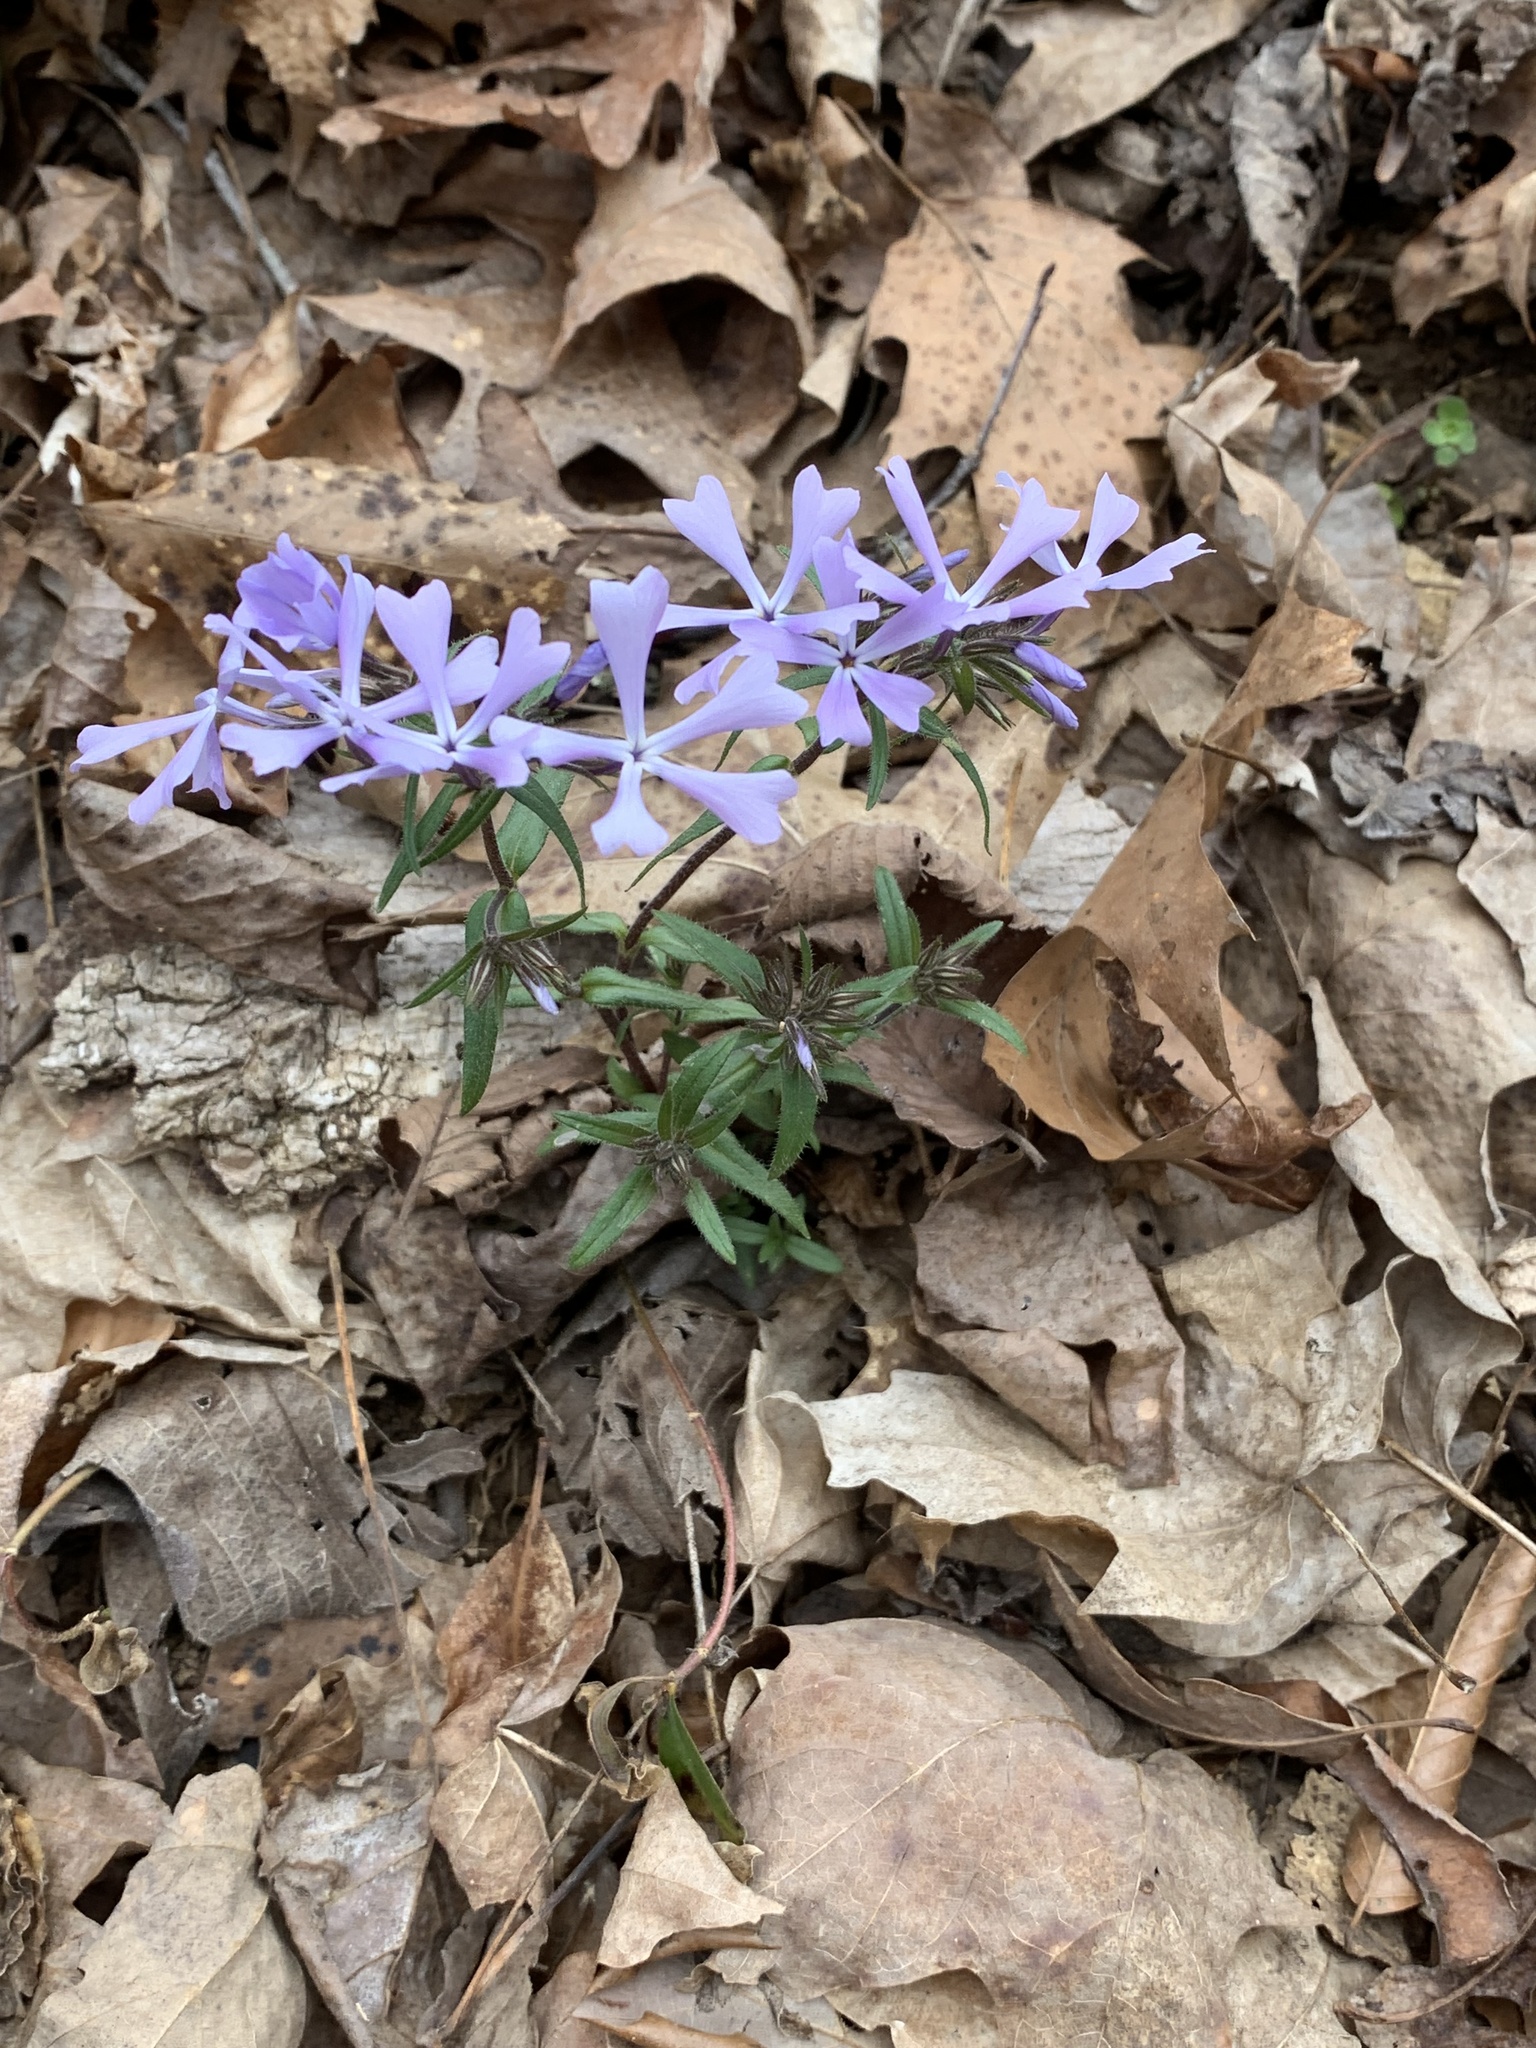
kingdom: Plantae
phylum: Tracheophyta
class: Magnoliopsida
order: Ericales
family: Polemoniaceae
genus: Phlox
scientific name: Phlox divaricata
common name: Blue phlox
